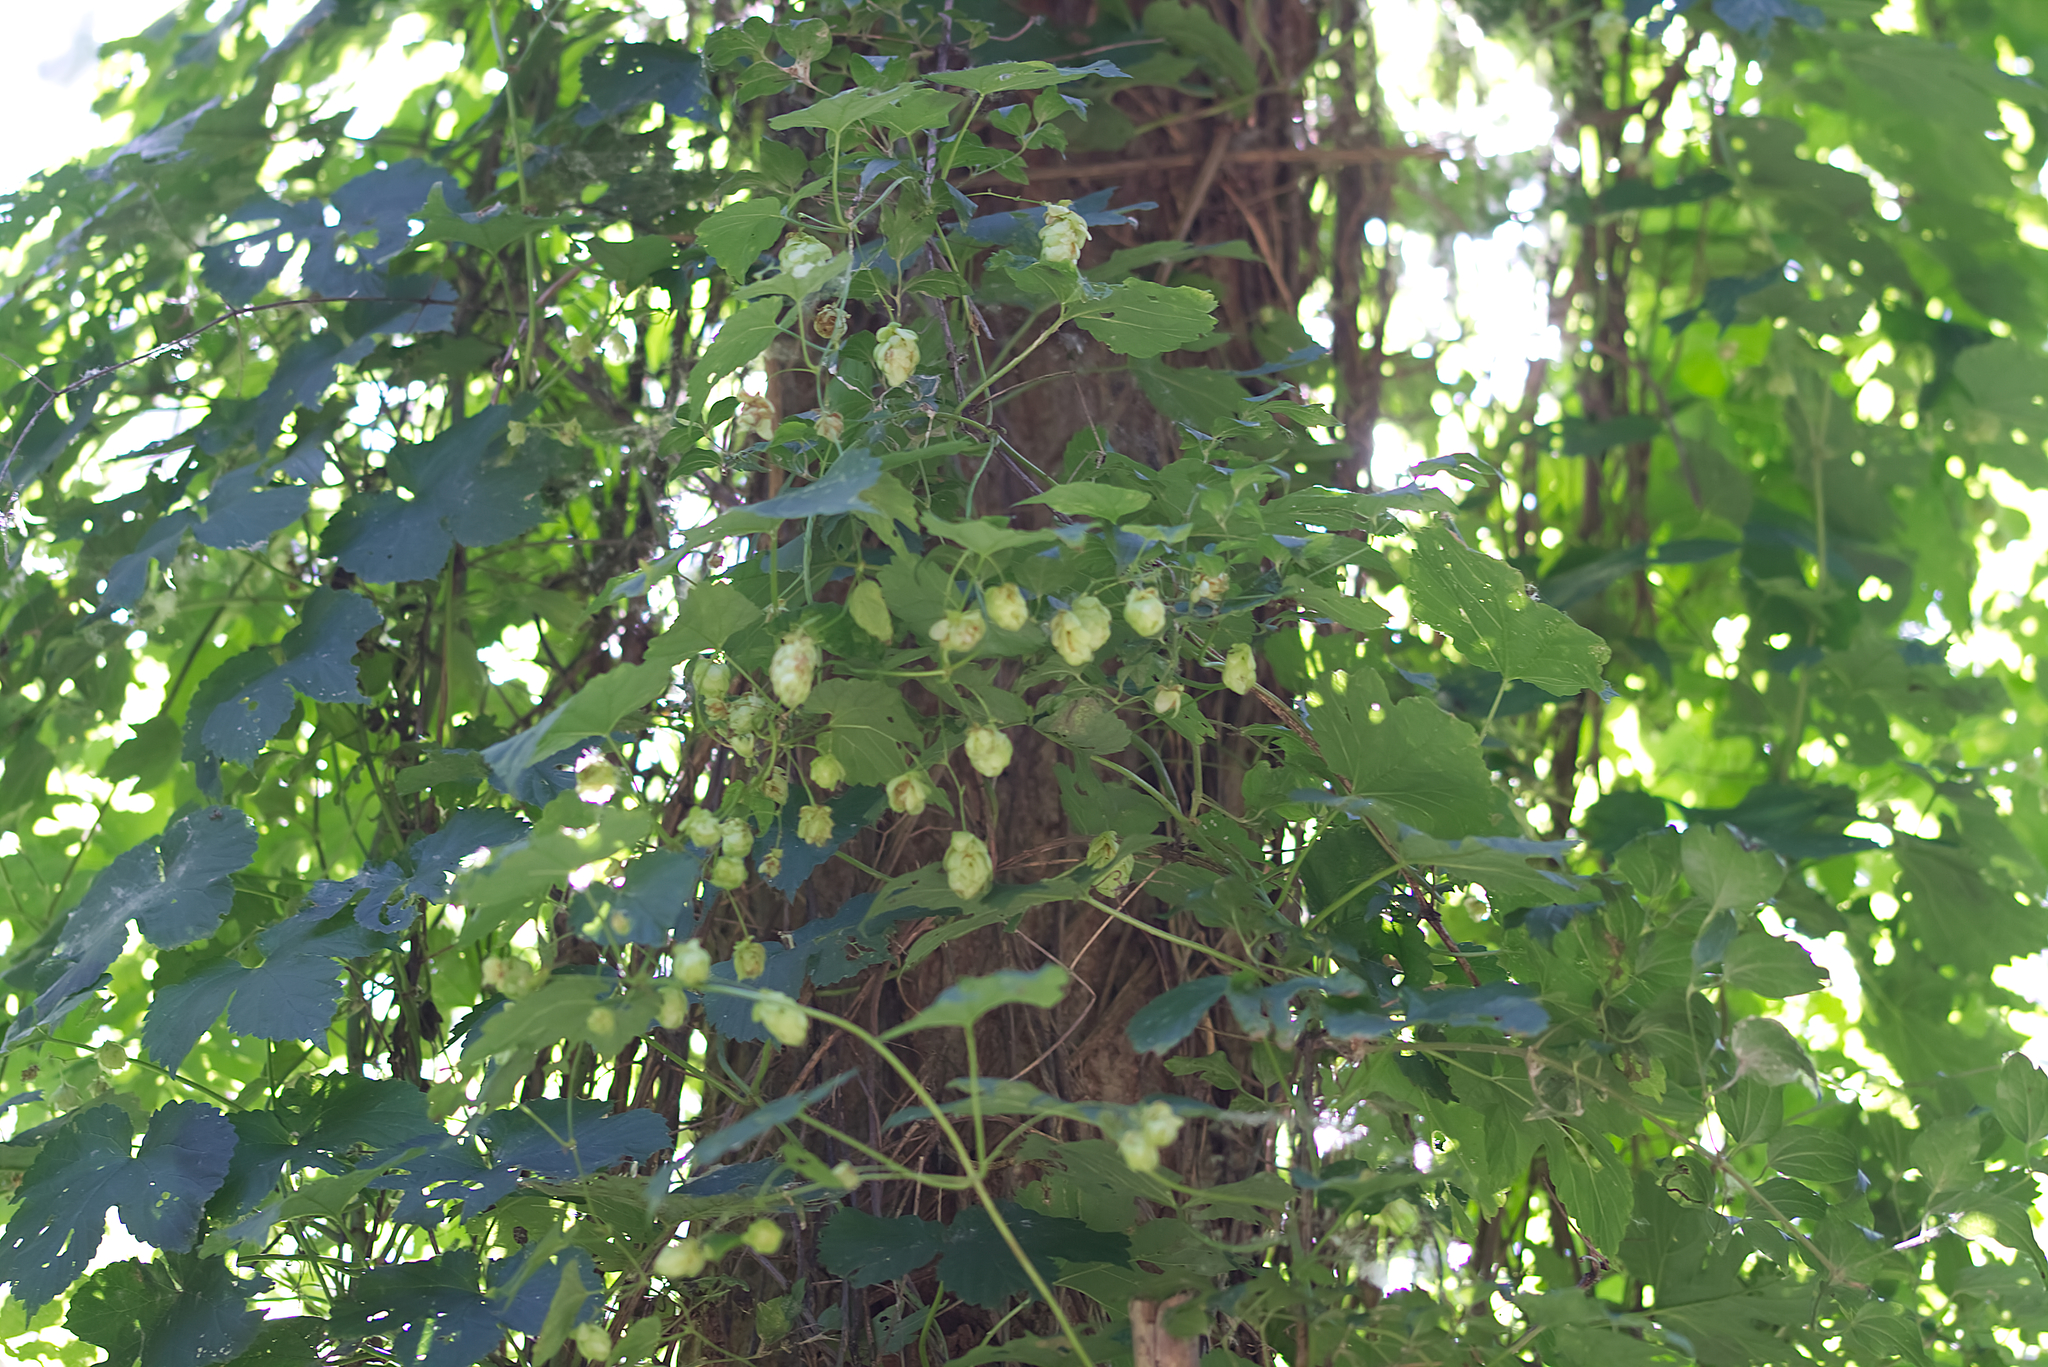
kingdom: Plantae
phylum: Tracheophyta
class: Magnoliopsida
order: Rosales
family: Cannabaceae
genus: Humulus
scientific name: Humulus lupulus
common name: Hop
